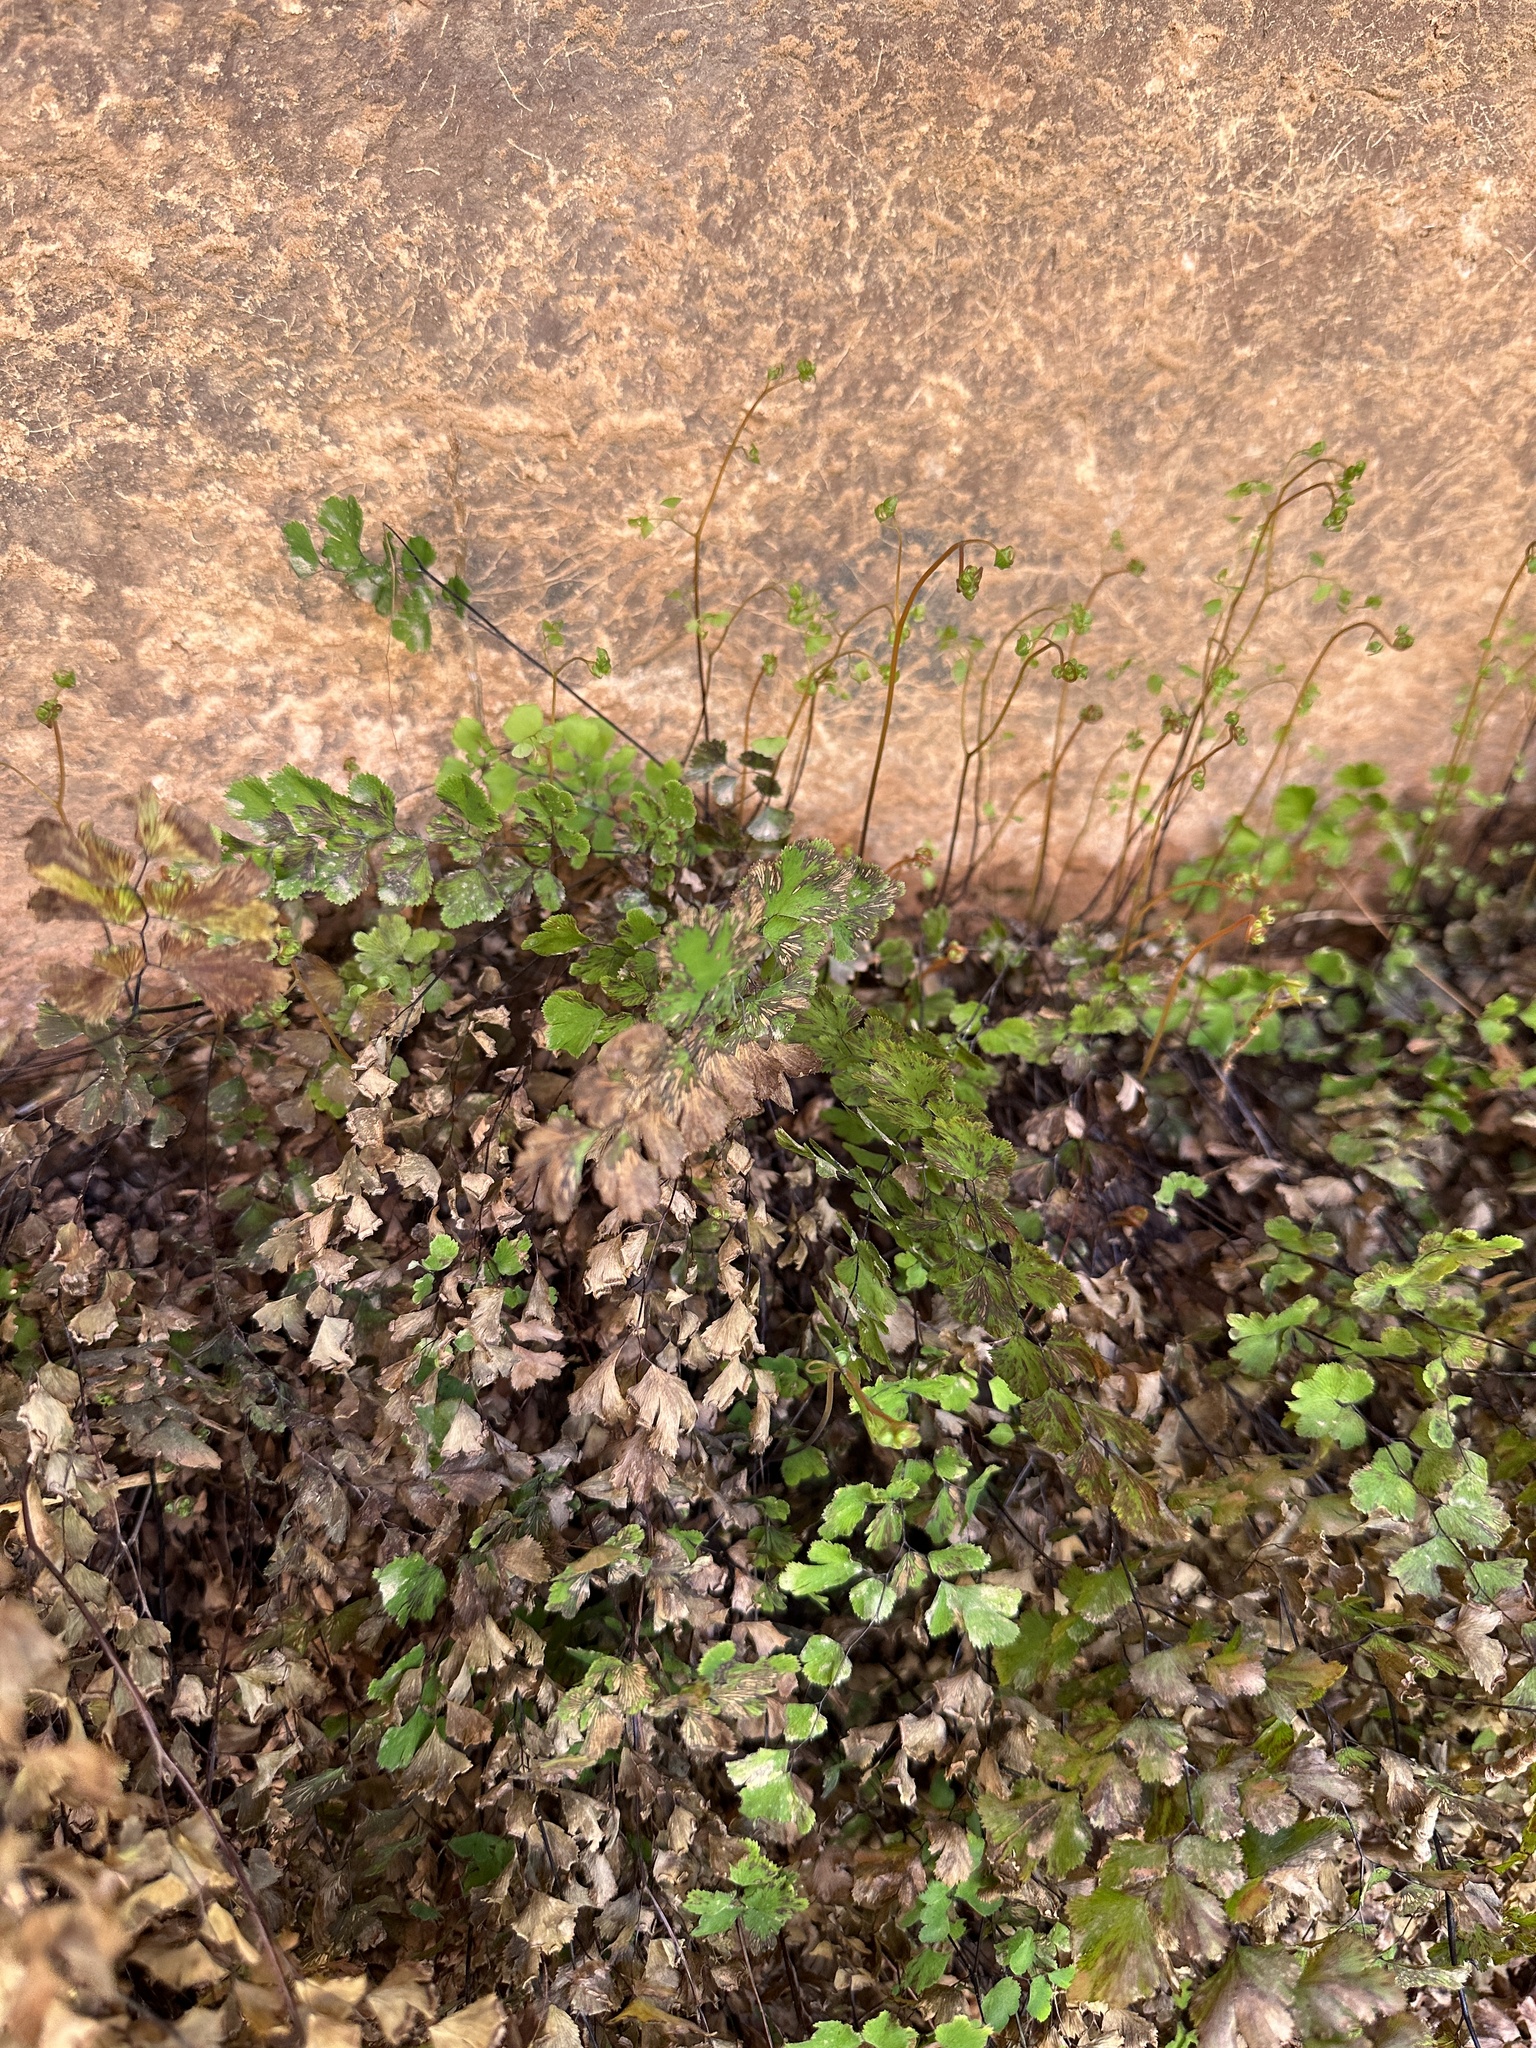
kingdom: Plantae
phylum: Tracheophyta
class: Polypodiopsida
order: Polypodiales
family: Pteridaceae
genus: Adiantum
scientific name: Adiantum capillus-veneris
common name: Maidenhair fern
